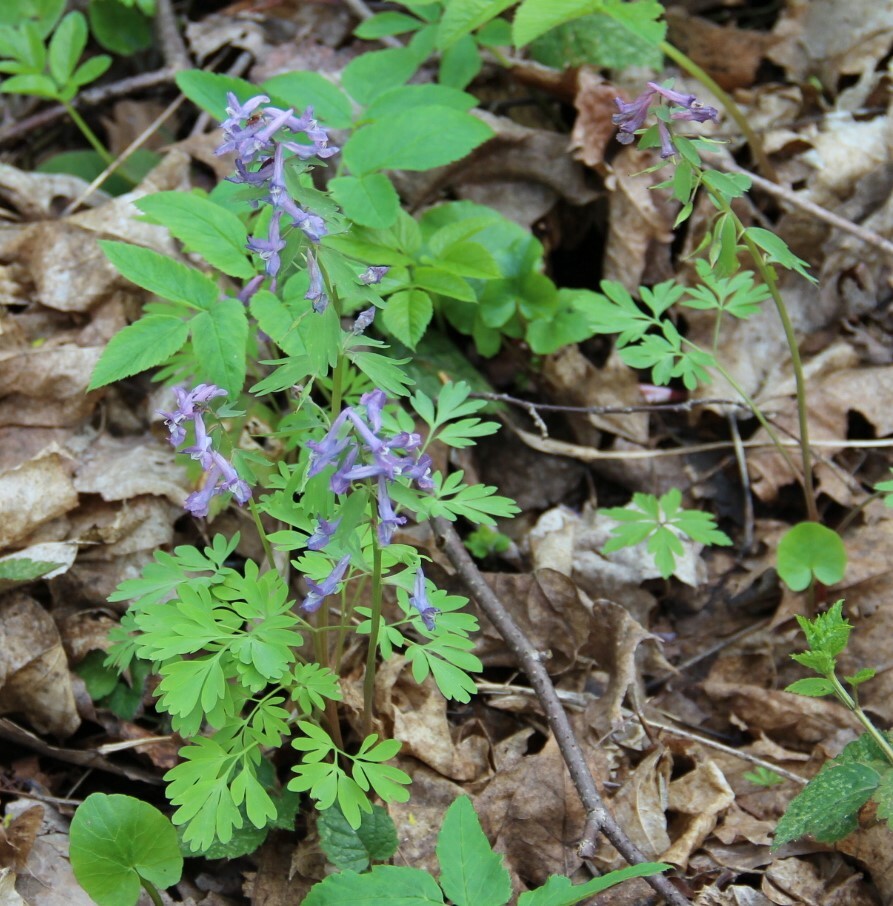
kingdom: Plantae
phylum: Tracheophyta
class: Magnoliopsida
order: Ranunculales
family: Papaveraceae
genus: Corydalis
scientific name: Corydalis solida
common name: Bird-in-a-bush
